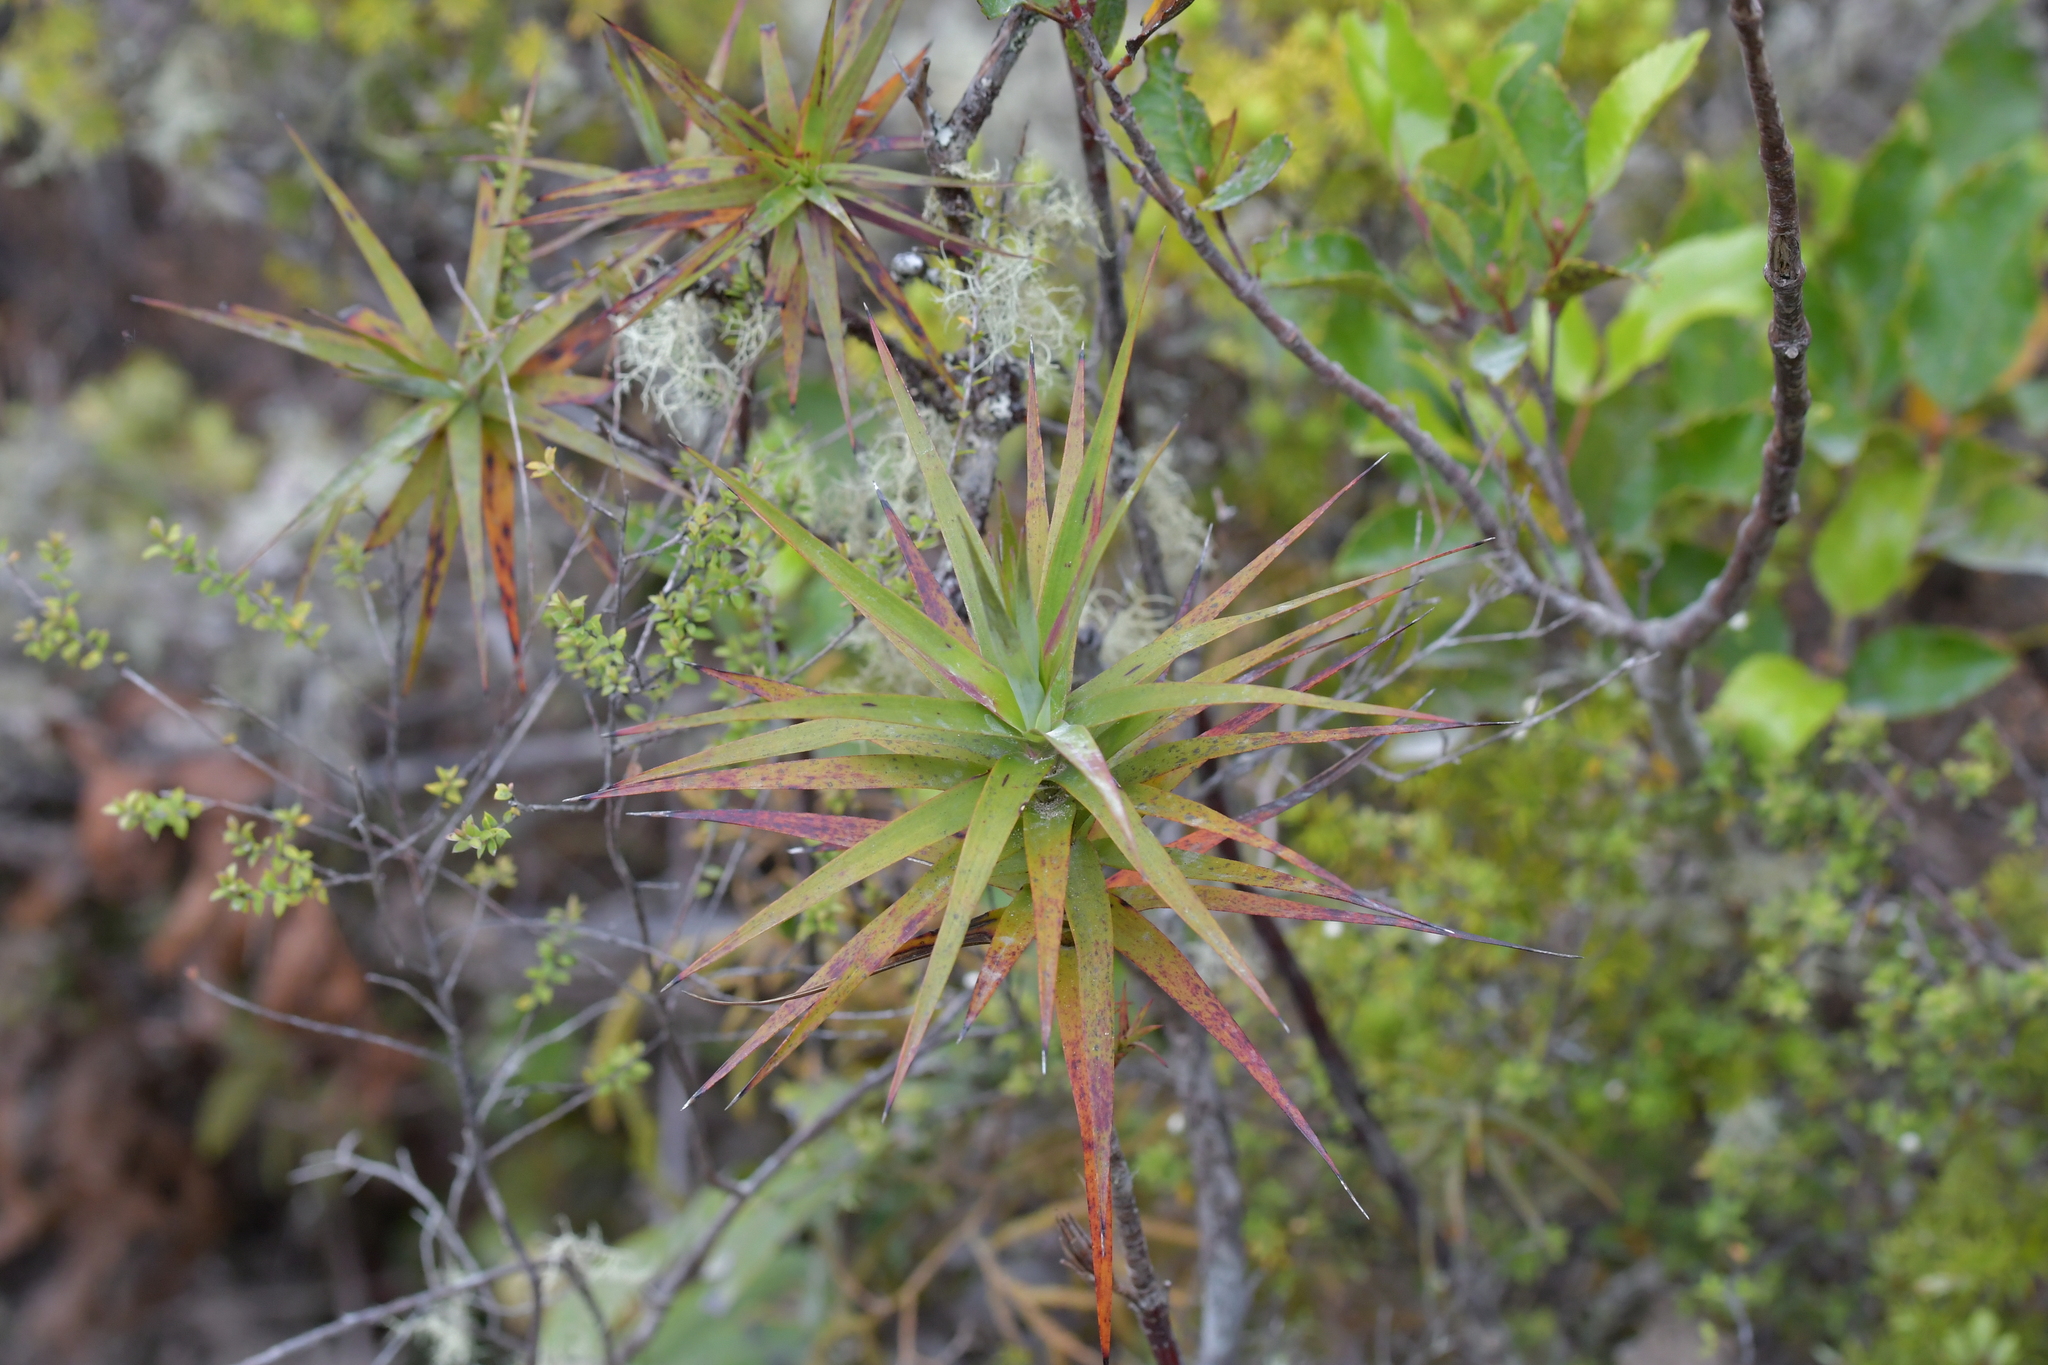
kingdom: Plantae
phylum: Tracheophyta
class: Magnoliopsida
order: Ericales
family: Ericaceae
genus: Dracophyllum
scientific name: Dracophyllum strictum
